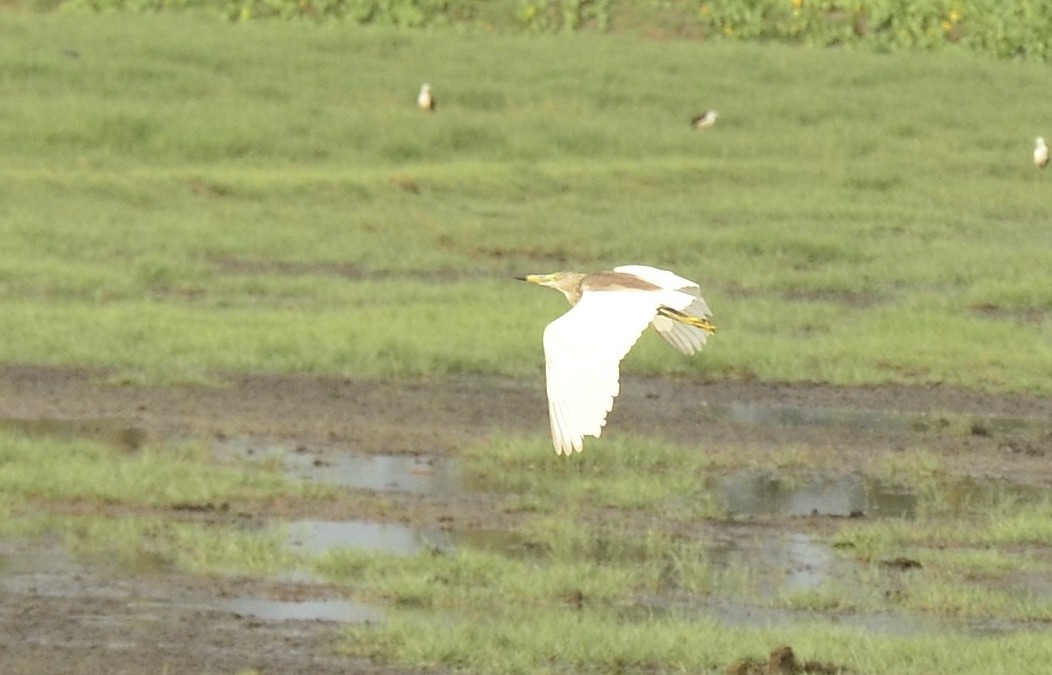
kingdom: Animalia
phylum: Chordata
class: Aves
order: Pelecaniformes
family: Ardeidae
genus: Ardeola
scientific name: Ardeola grayii
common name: Indian pond heron
